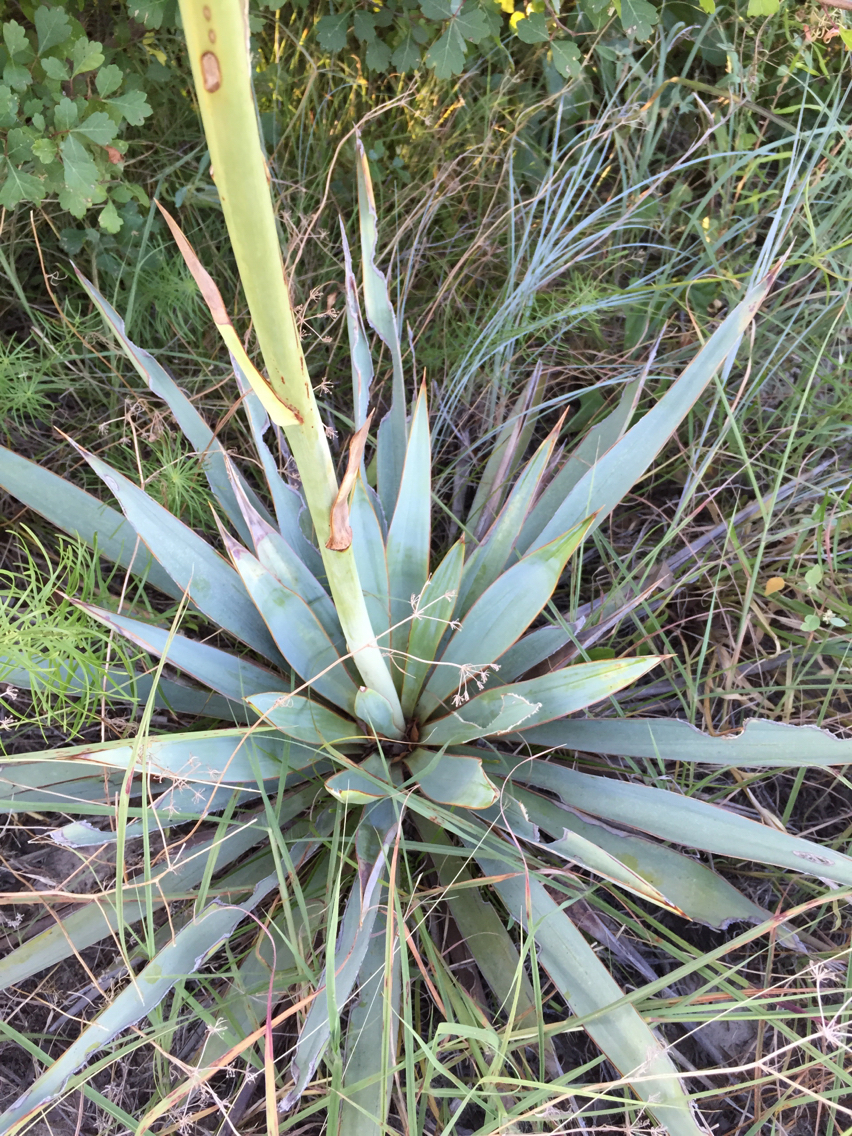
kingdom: Plantae
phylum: Tracheophyta
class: Liliopsida
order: Asparagales
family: Asparagaceae
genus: Yucca
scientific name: Yucca pallida
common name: Pale leaf yucca
